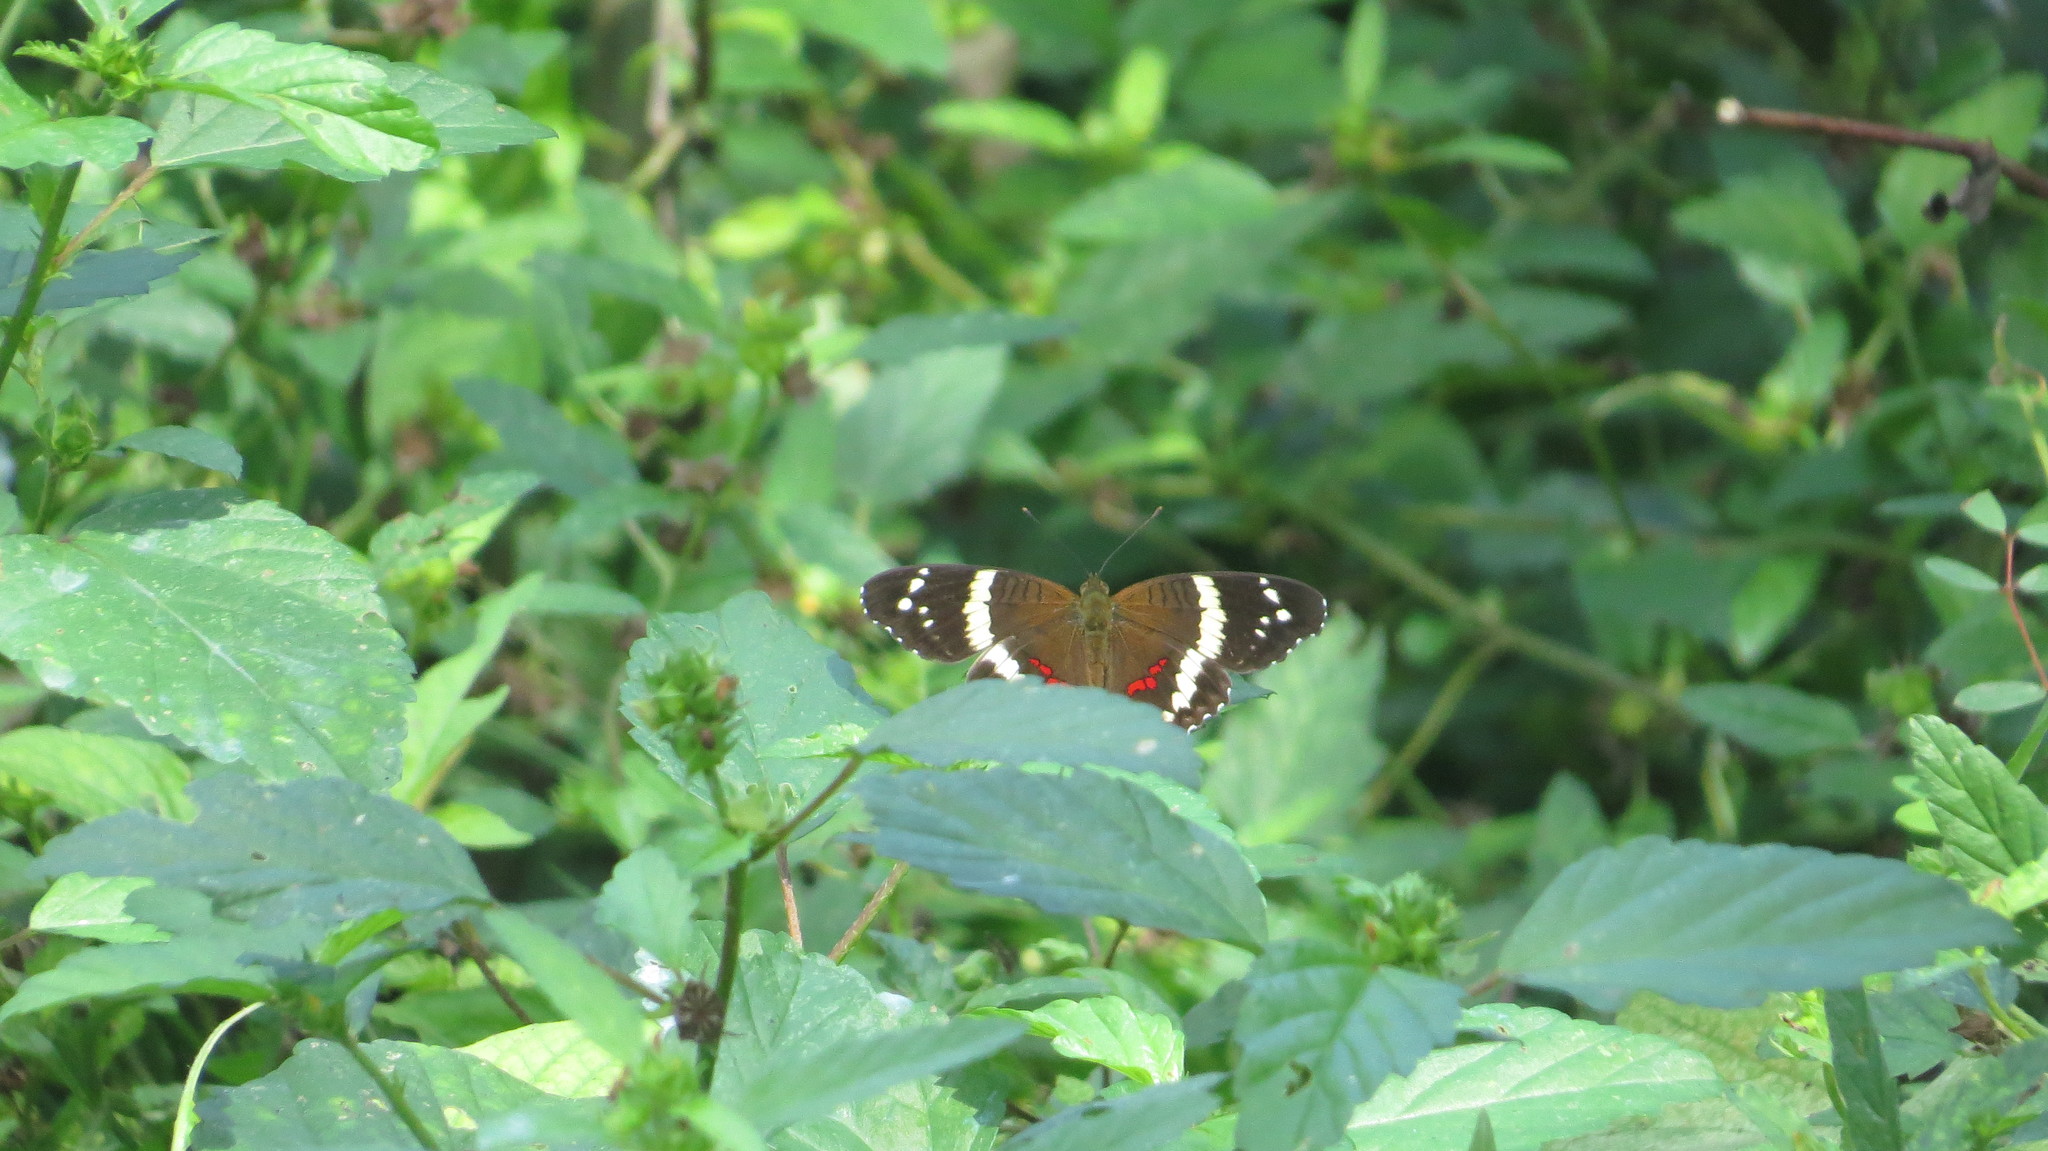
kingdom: Animalia
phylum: Arthropoda
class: Insecta
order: Lepidoptera
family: Nymphalidae
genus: Anartia
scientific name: Anartia fatima
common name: Banded peacock
